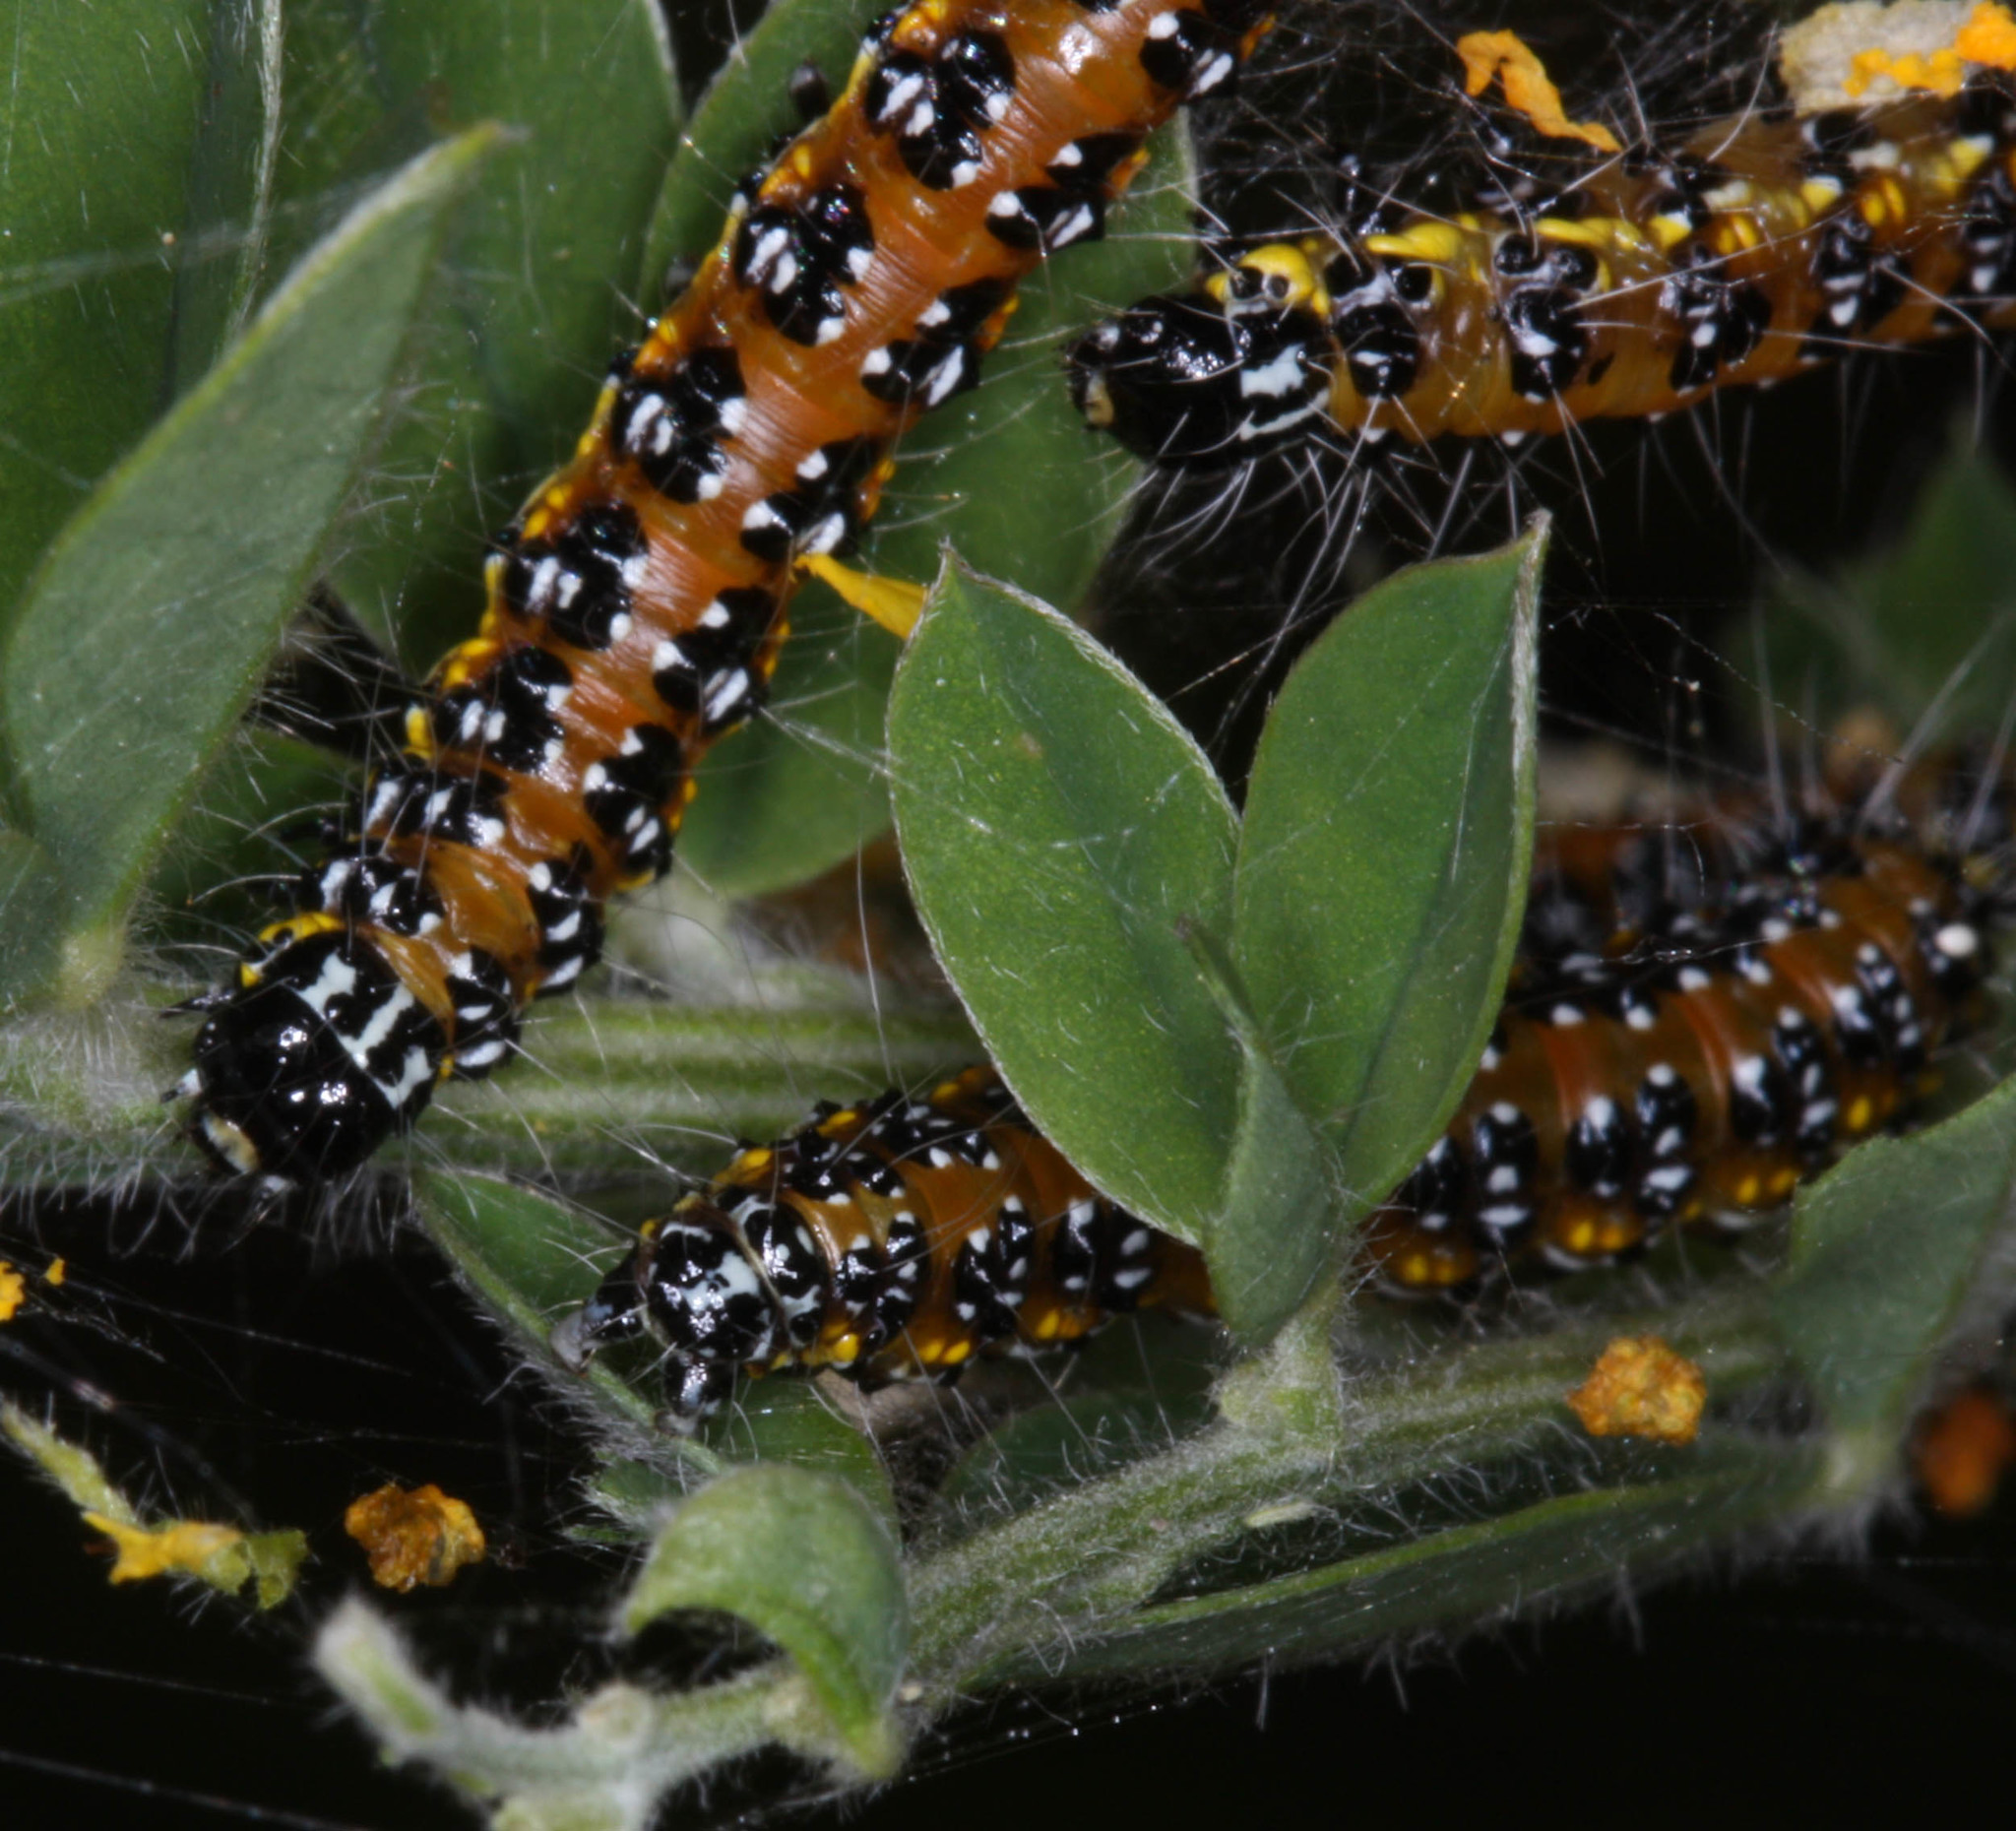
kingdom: Animalia
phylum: Arthropoda
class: Insecta
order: Lepidoptera
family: Crambidae
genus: Uresiphita
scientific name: Uresiphita reversalis
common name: Genista broom moth
